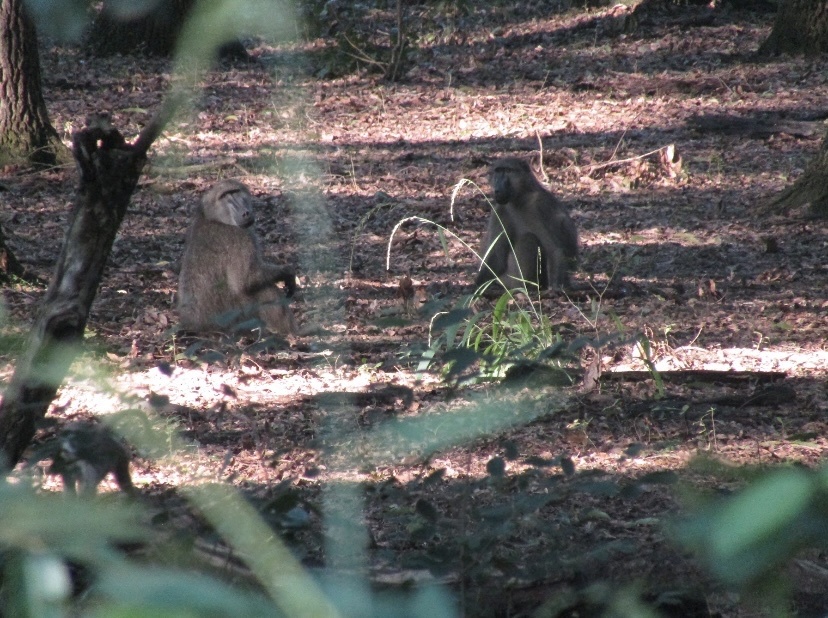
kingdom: Animalia
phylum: Chordata
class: Mammalia
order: Primates
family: Cercopithecidae
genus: Papio
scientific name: Papio ursinus
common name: Chacma baboon
